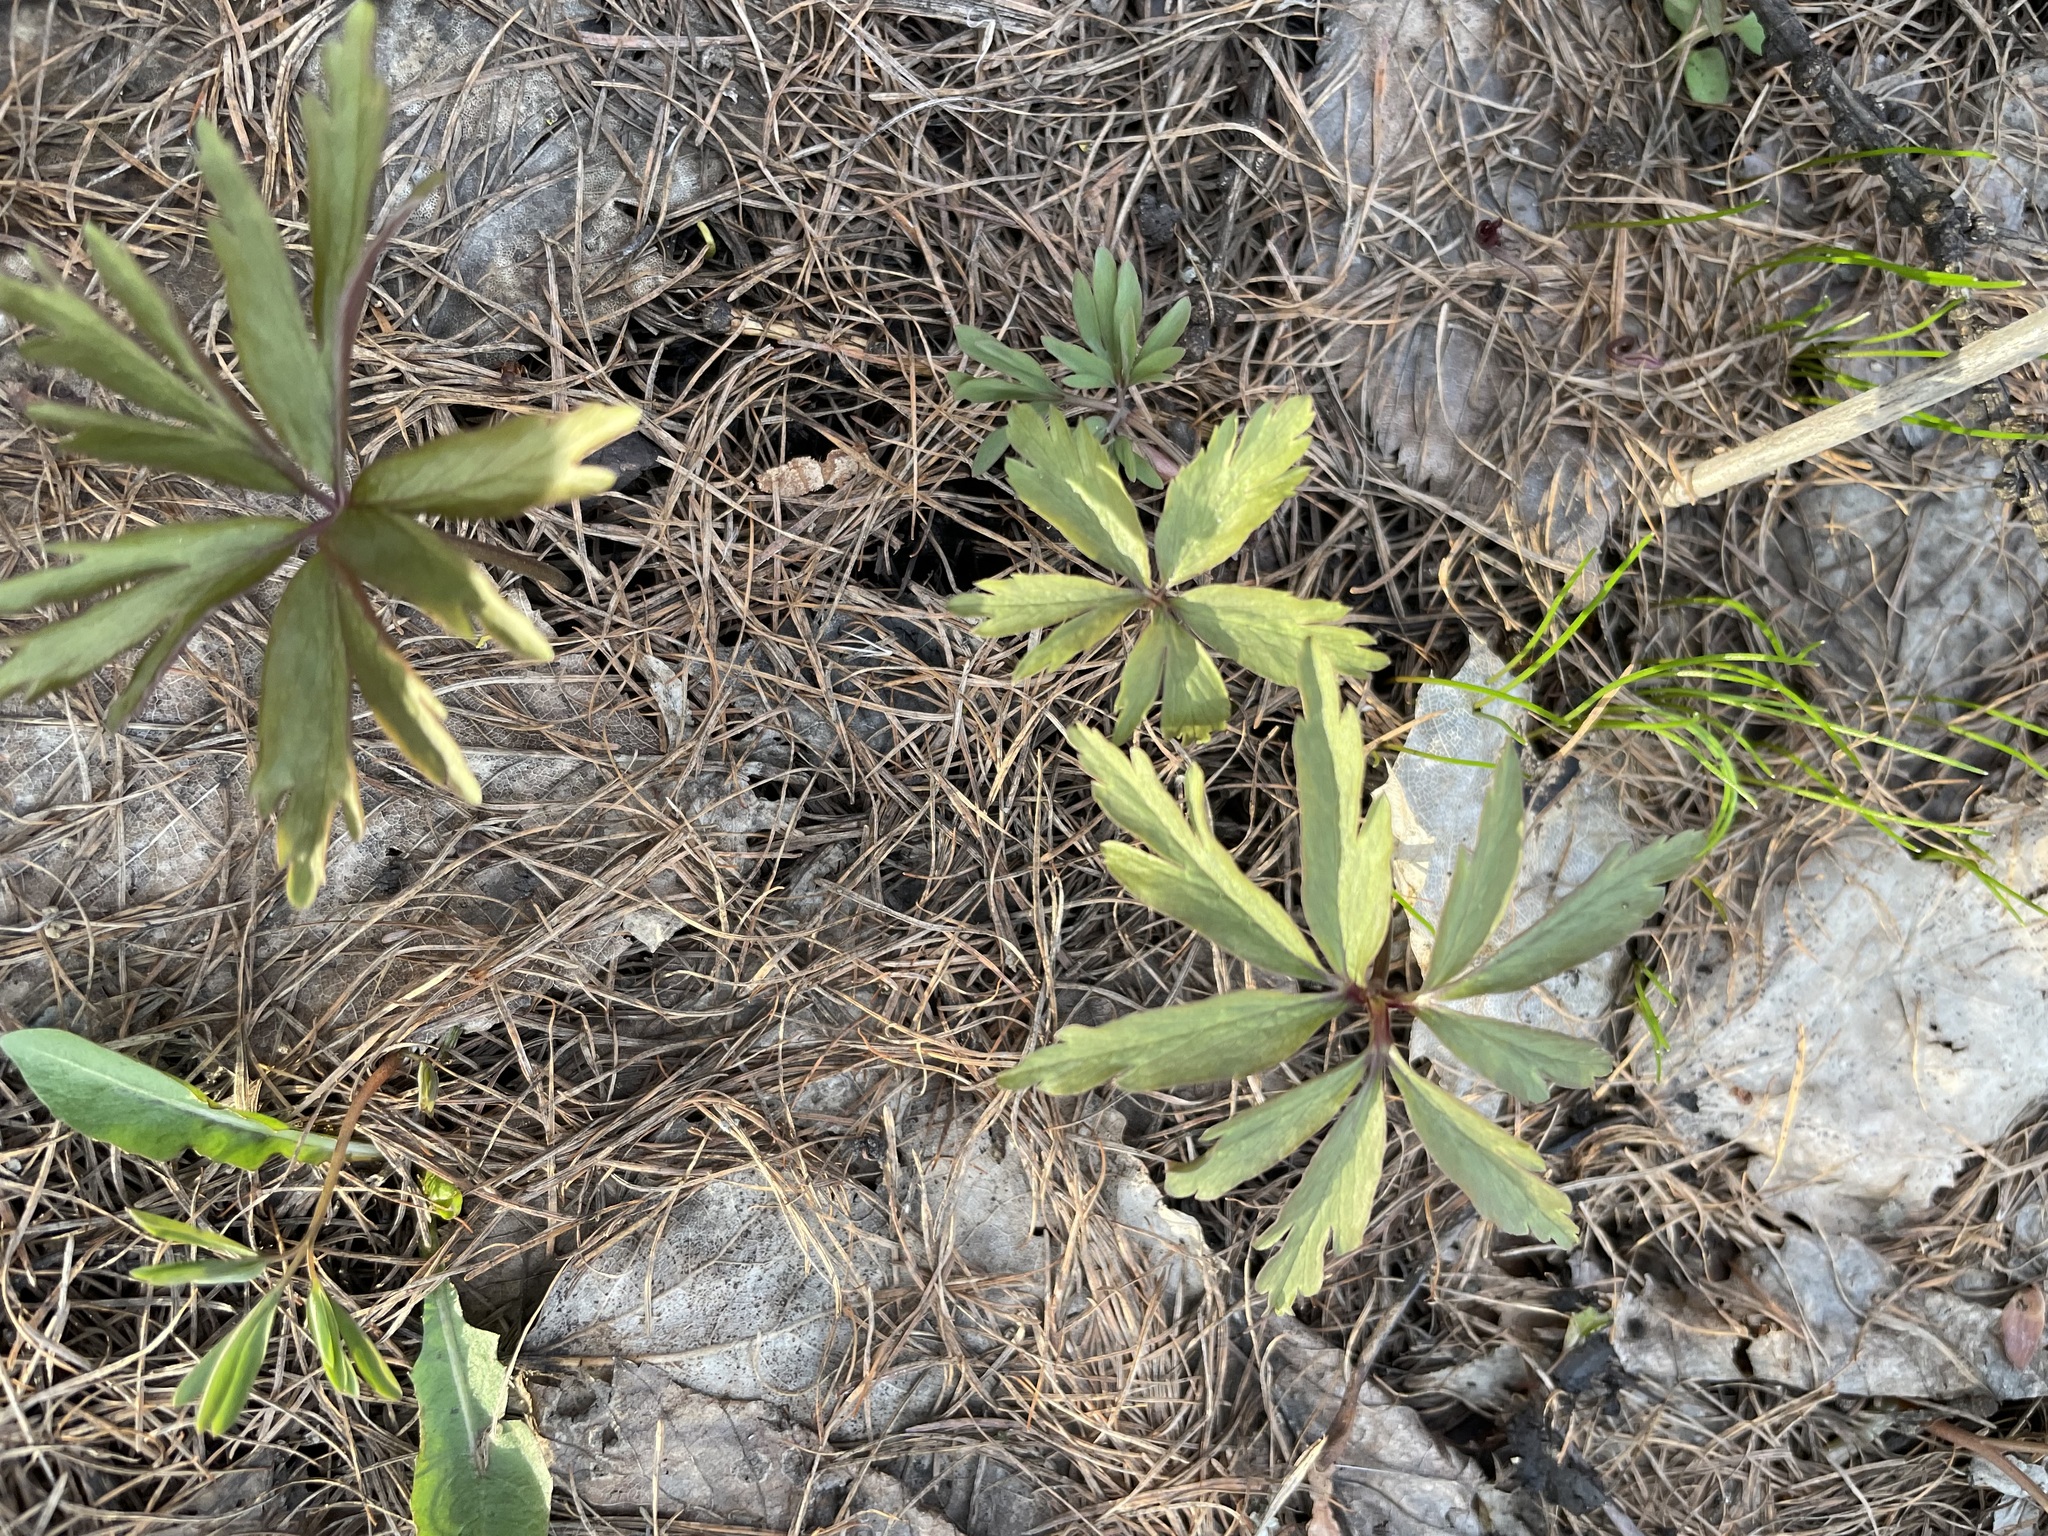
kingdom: Plantae
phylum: Tracheophyta
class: Magnoliopsida
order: Ranunculales
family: Ranunculaceae
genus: Anemone
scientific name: Anemone ranunculoides
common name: Yellow anemone
